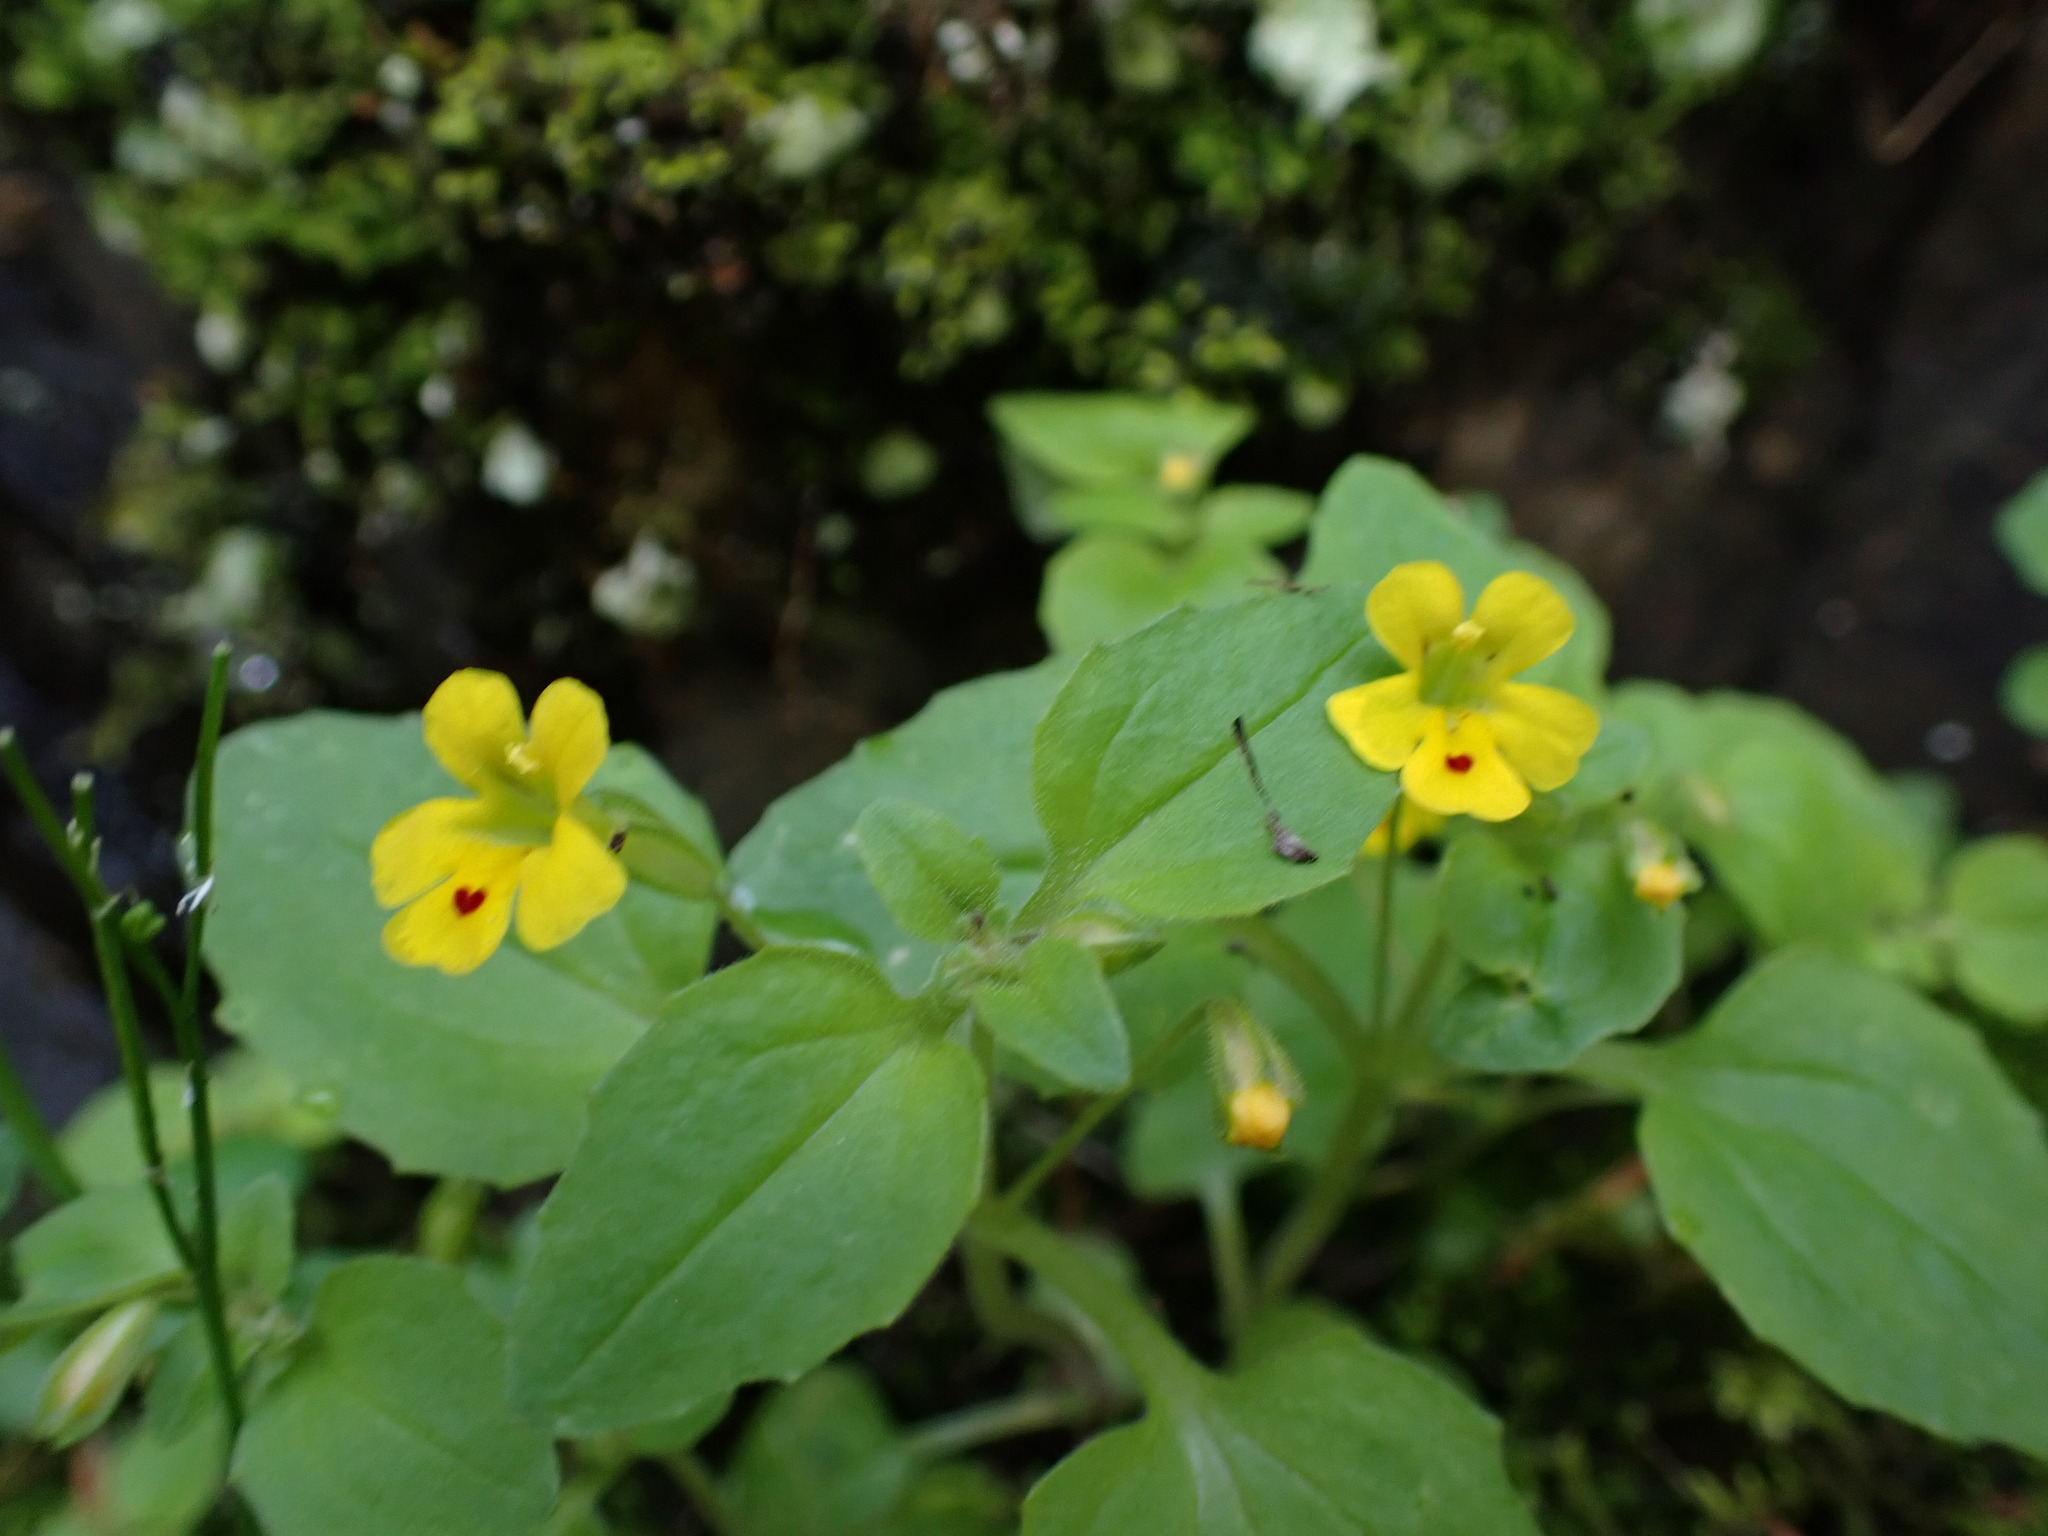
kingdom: Plantae
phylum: Tracheophyta
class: Magnoliopsida
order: Lamiales
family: Phrymaceae
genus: Erythranthe
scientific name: Erythranthe alsinoides
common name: Chickweed monkeyflower
